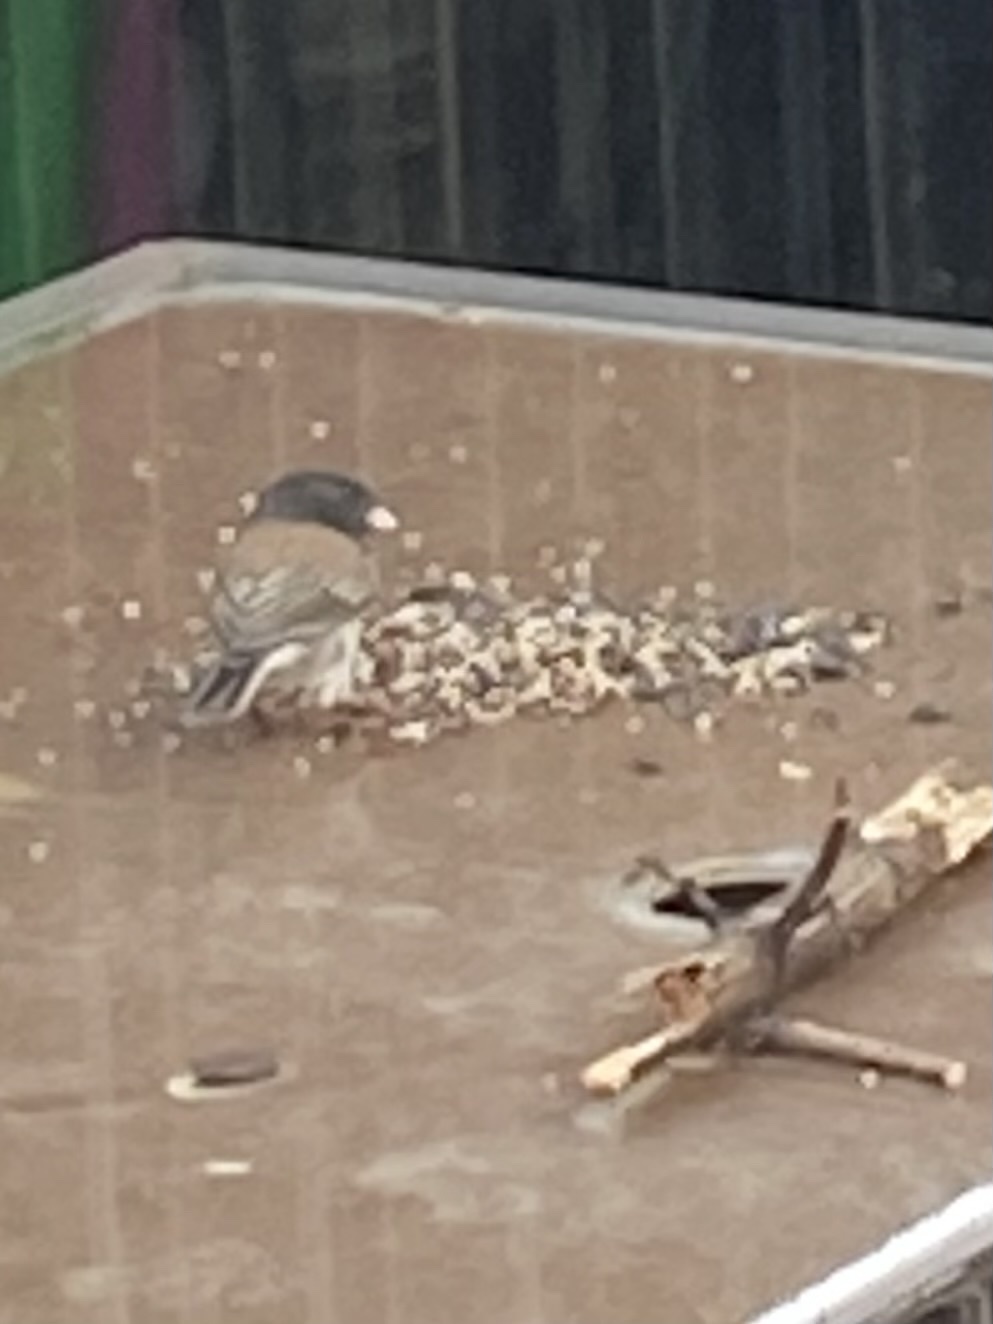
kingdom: Animalia
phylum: Chordata
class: Aves
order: Passeriformes
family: Passerellidae
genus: Junco
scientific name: Junco hyemalis
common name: Dark-eyed junco
